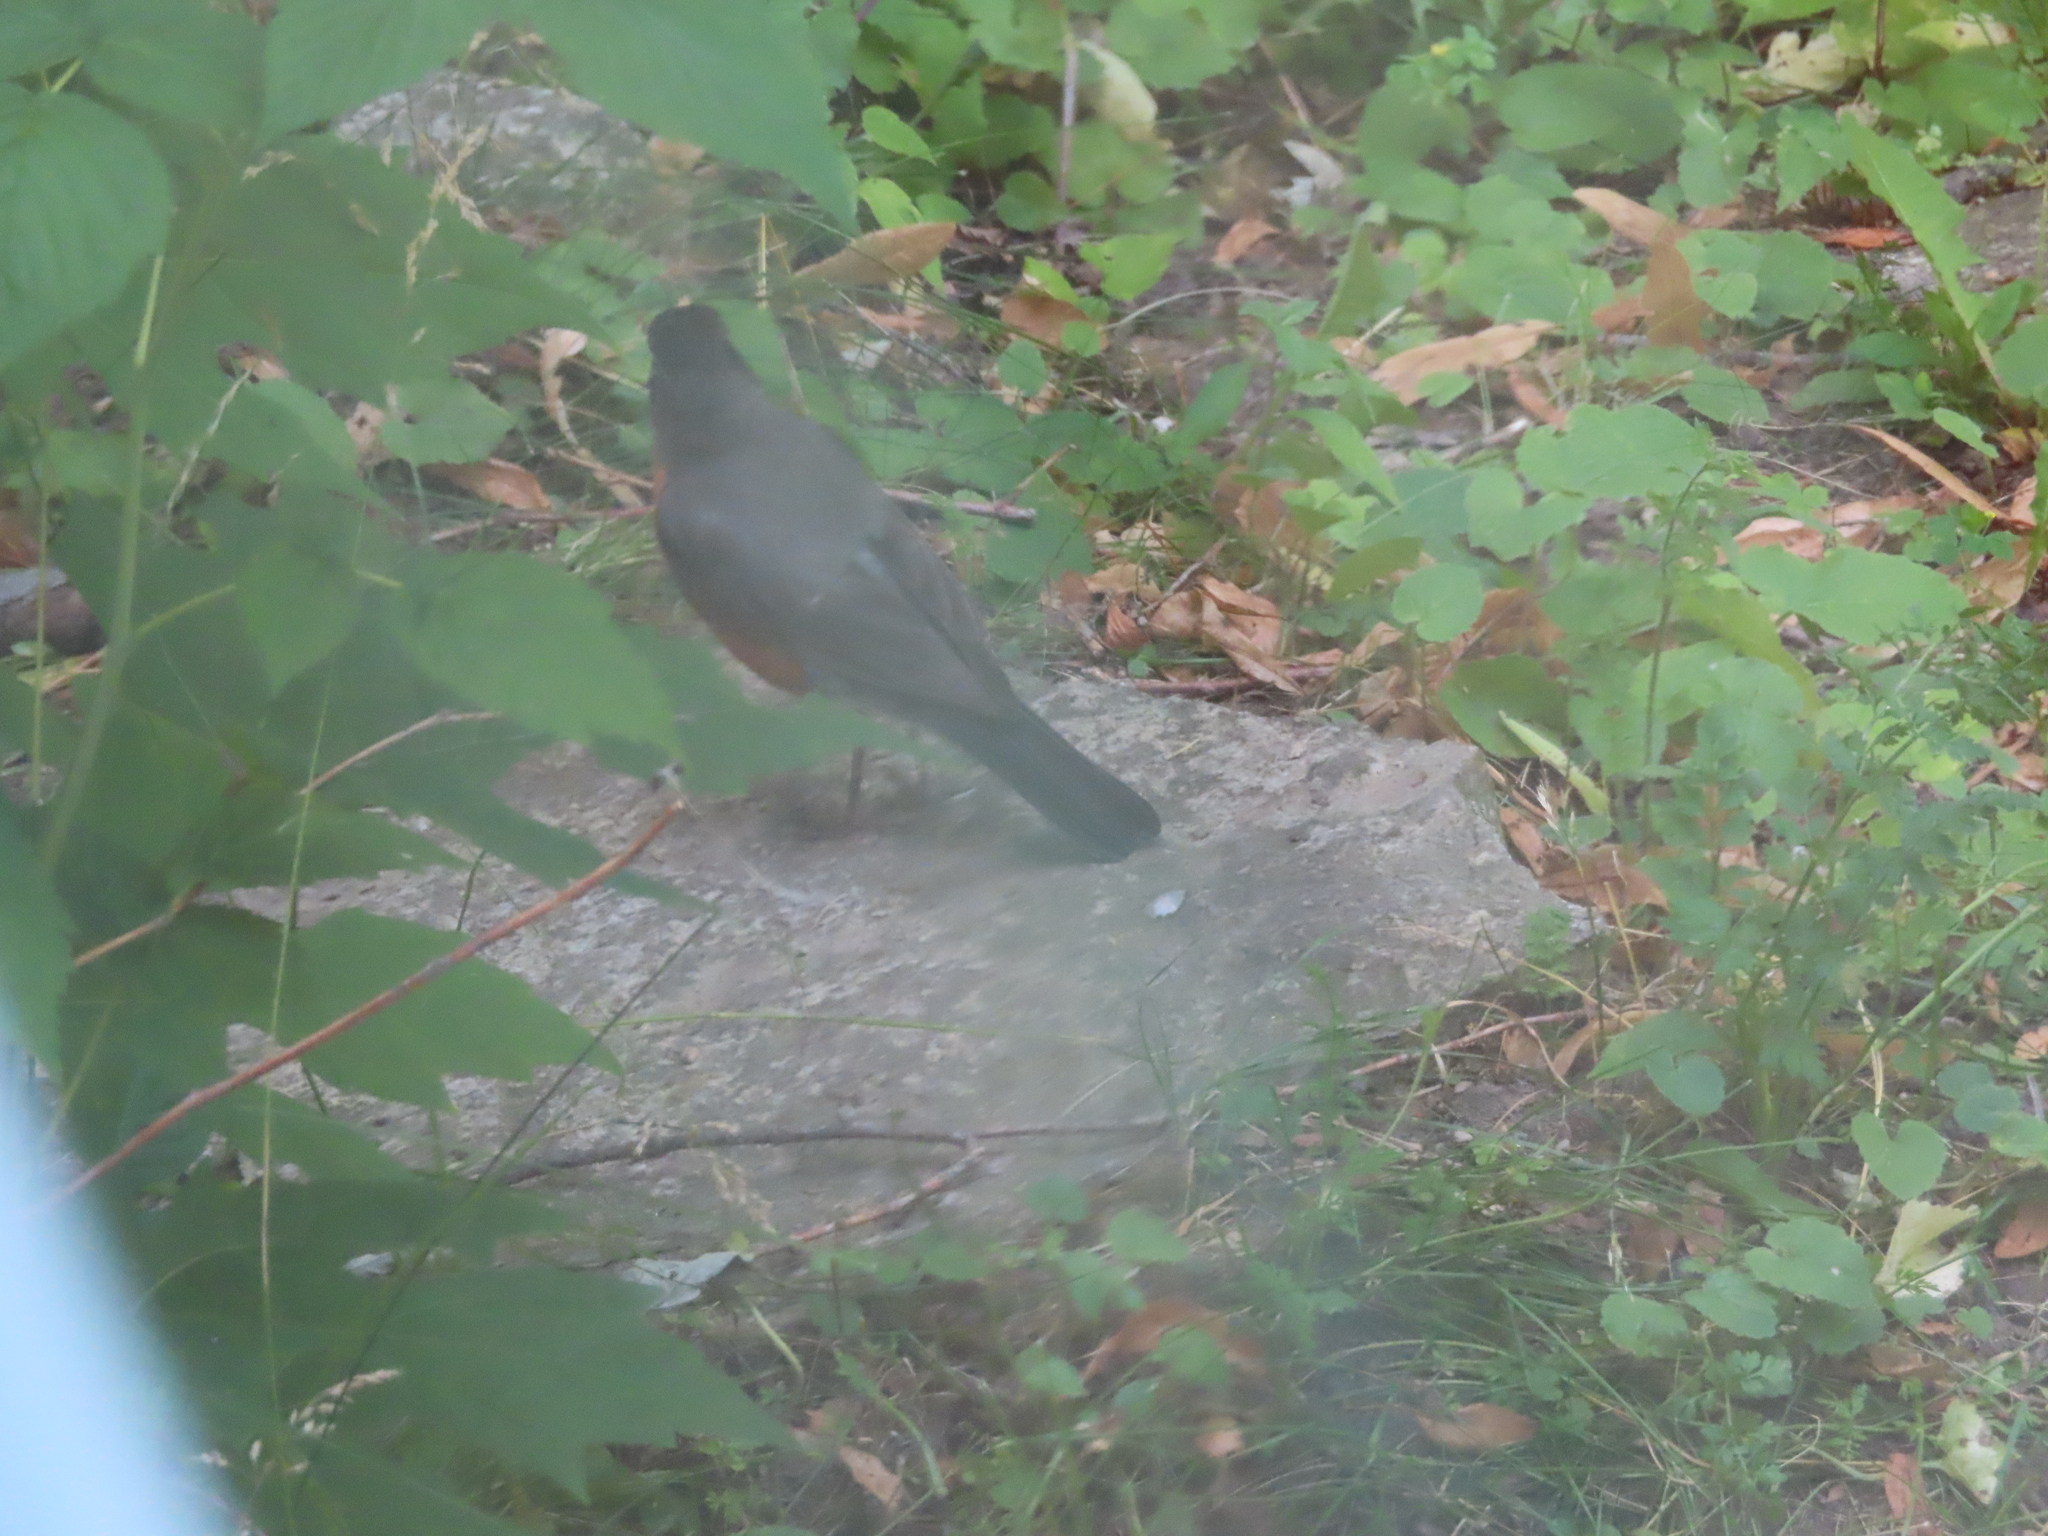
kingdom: Animalia
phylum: Chordata
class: Aves
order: Passeriformes
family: Turdidae
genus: Turdus
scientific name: Turdus migratorius
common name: American robin
